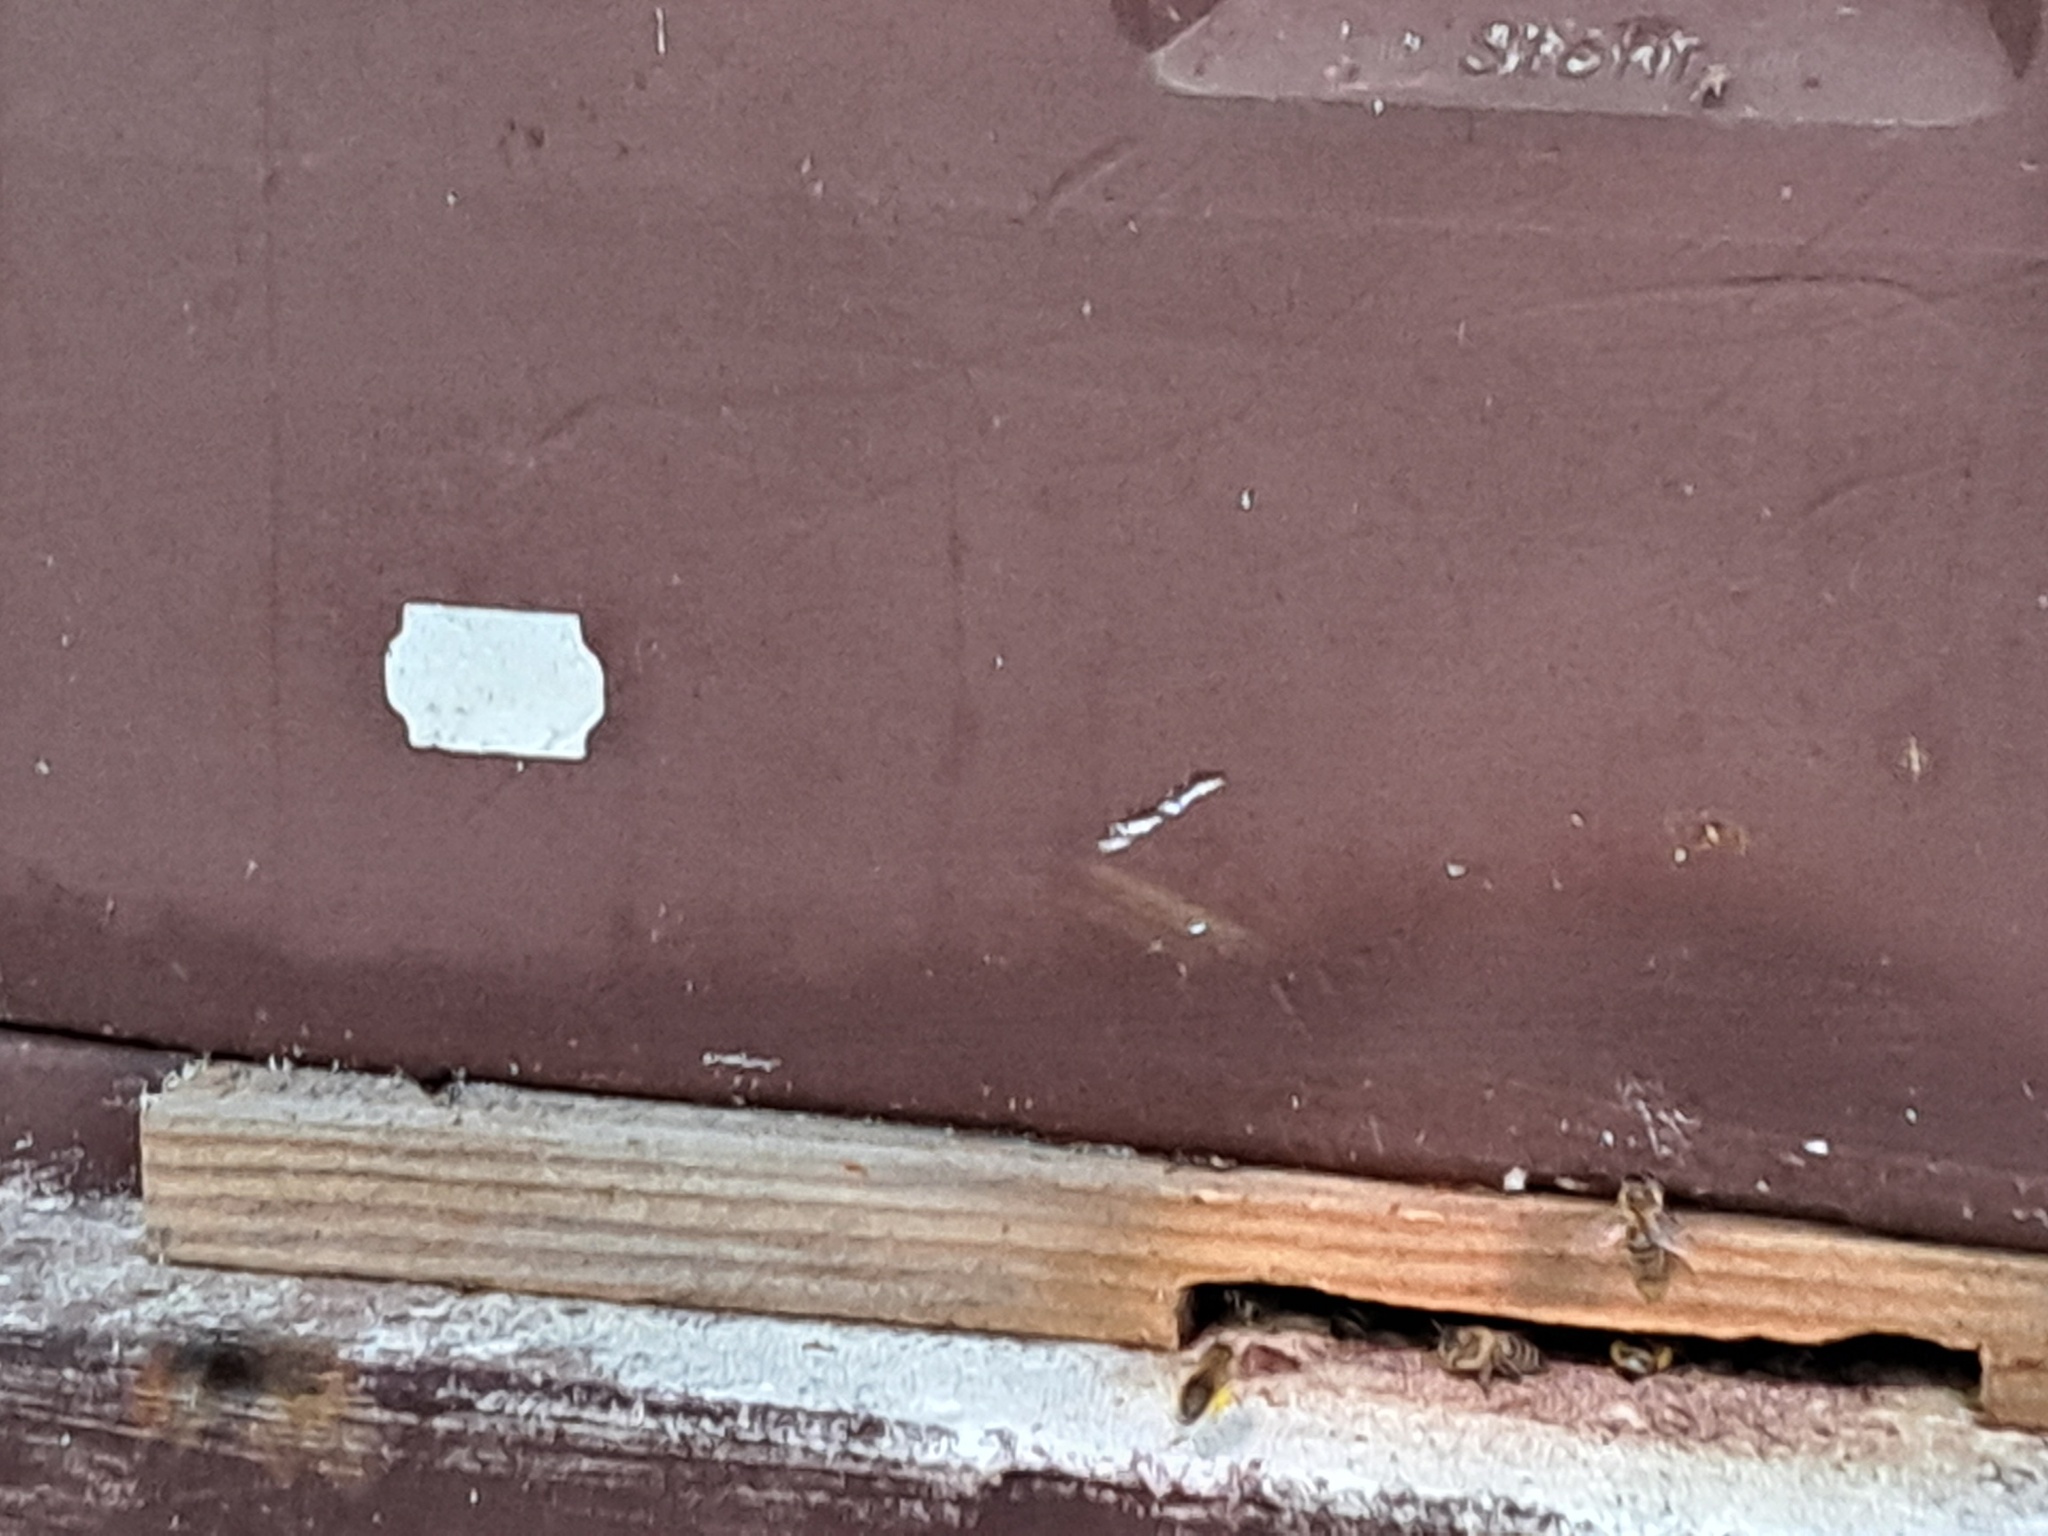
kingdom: Animalia
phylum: Arthropoda
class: Insecta
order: Hymenoptera
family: Vespidae
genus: Vespa
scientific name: Vespa velutina
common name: Asian hornet
